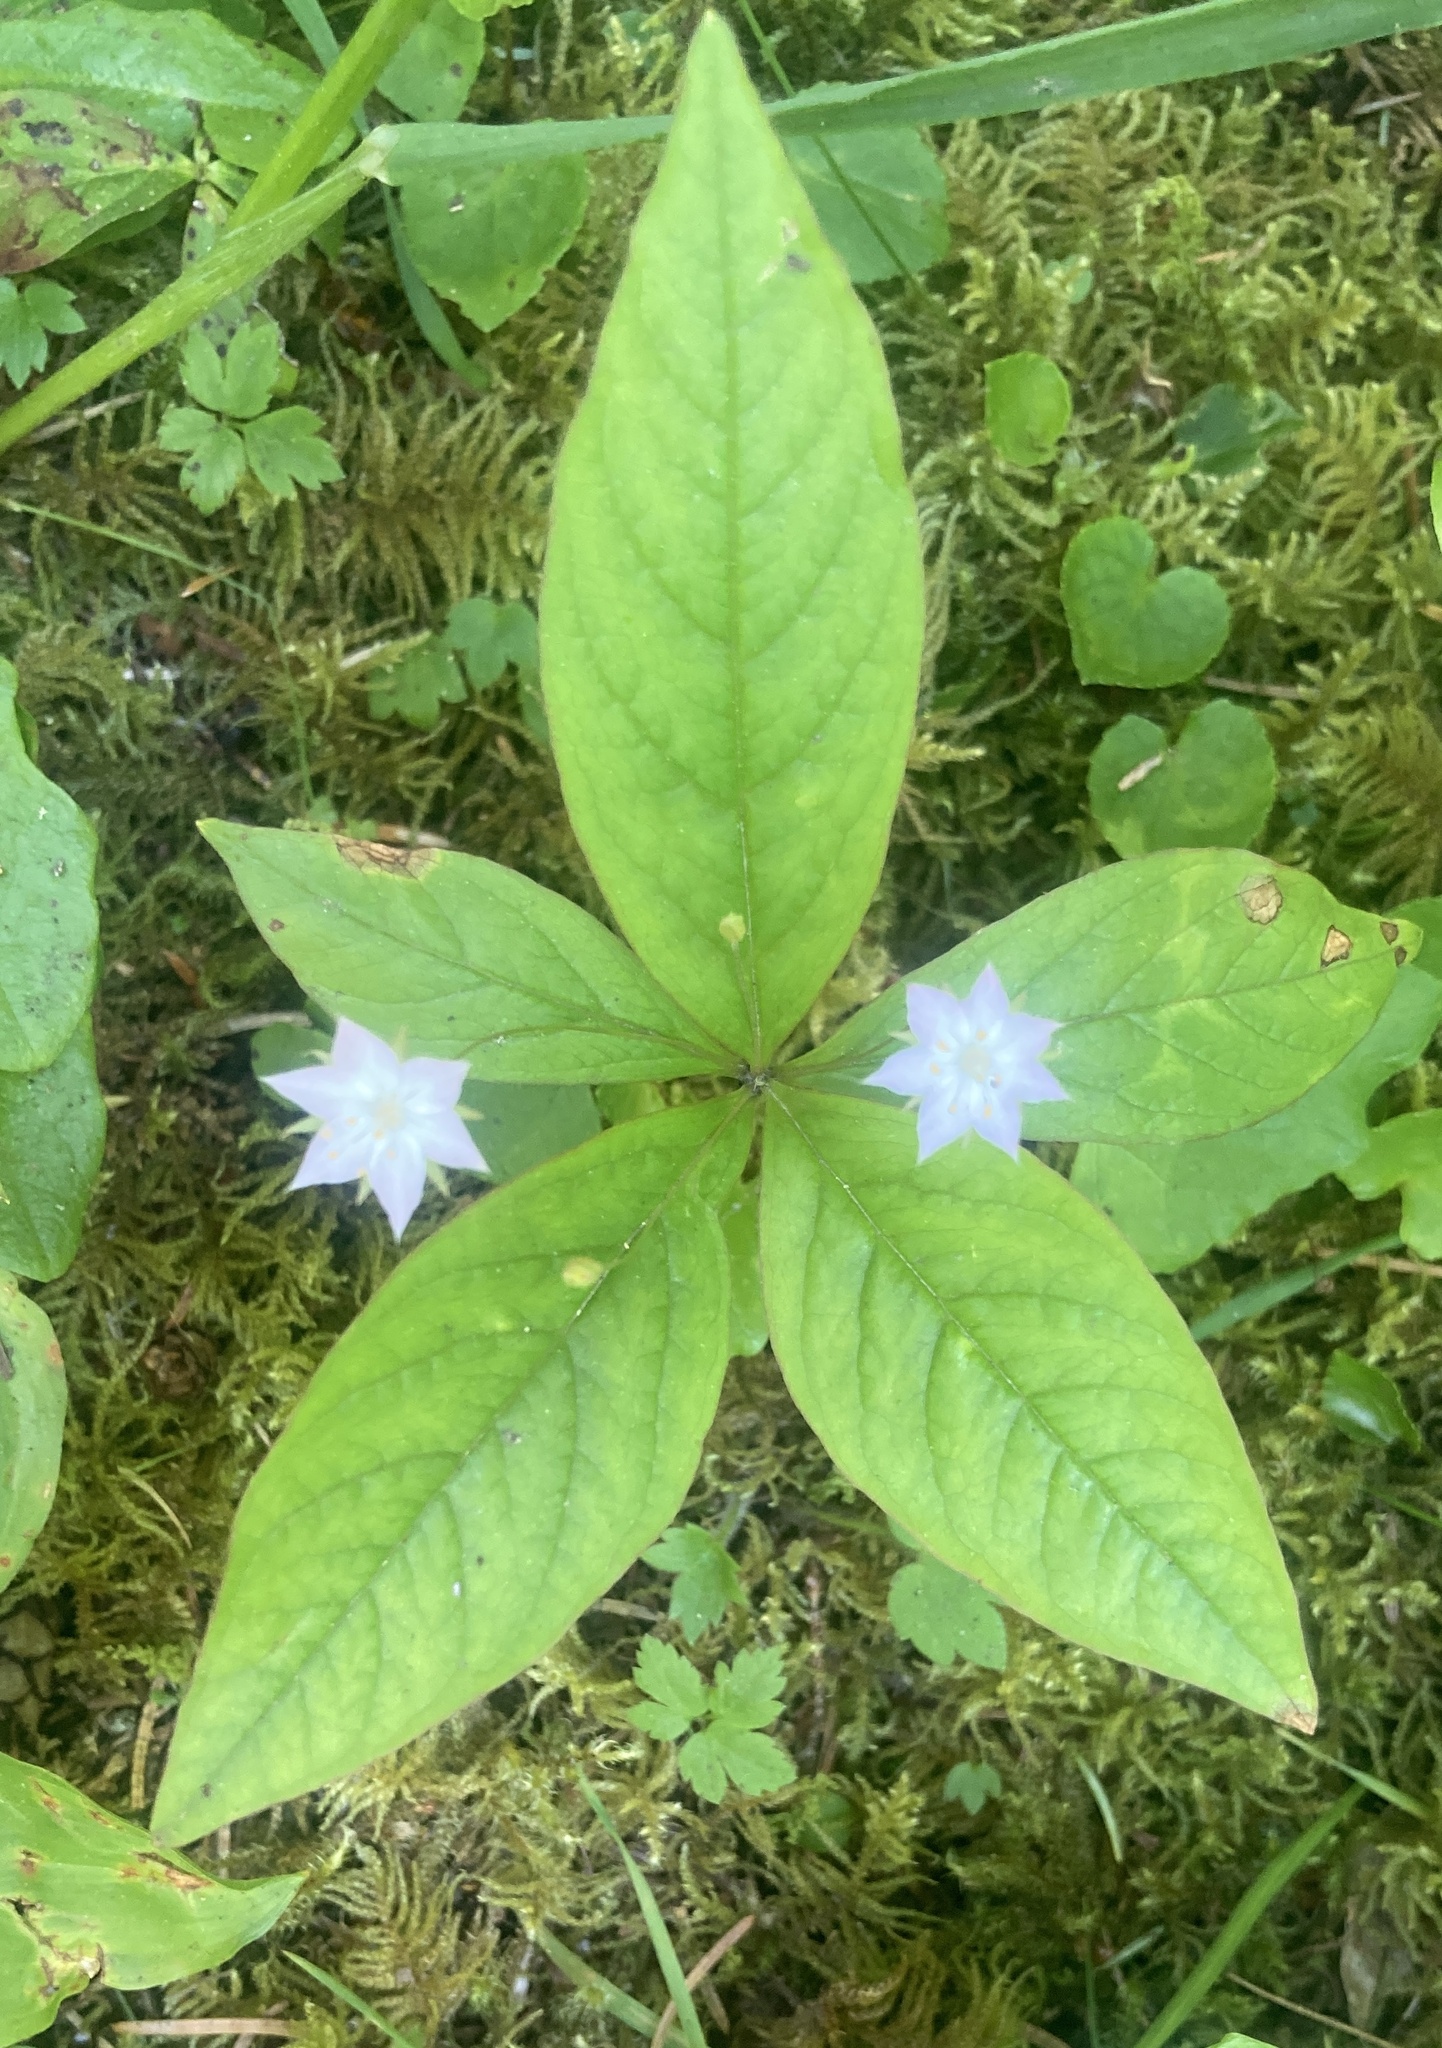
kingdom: Plantae
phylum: Tracheophyta
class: Magnoliopsida
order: Ericales
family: Primulaceae
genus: Lysimachia
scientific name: Lysimachia latifolia
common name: Pacific starflower
